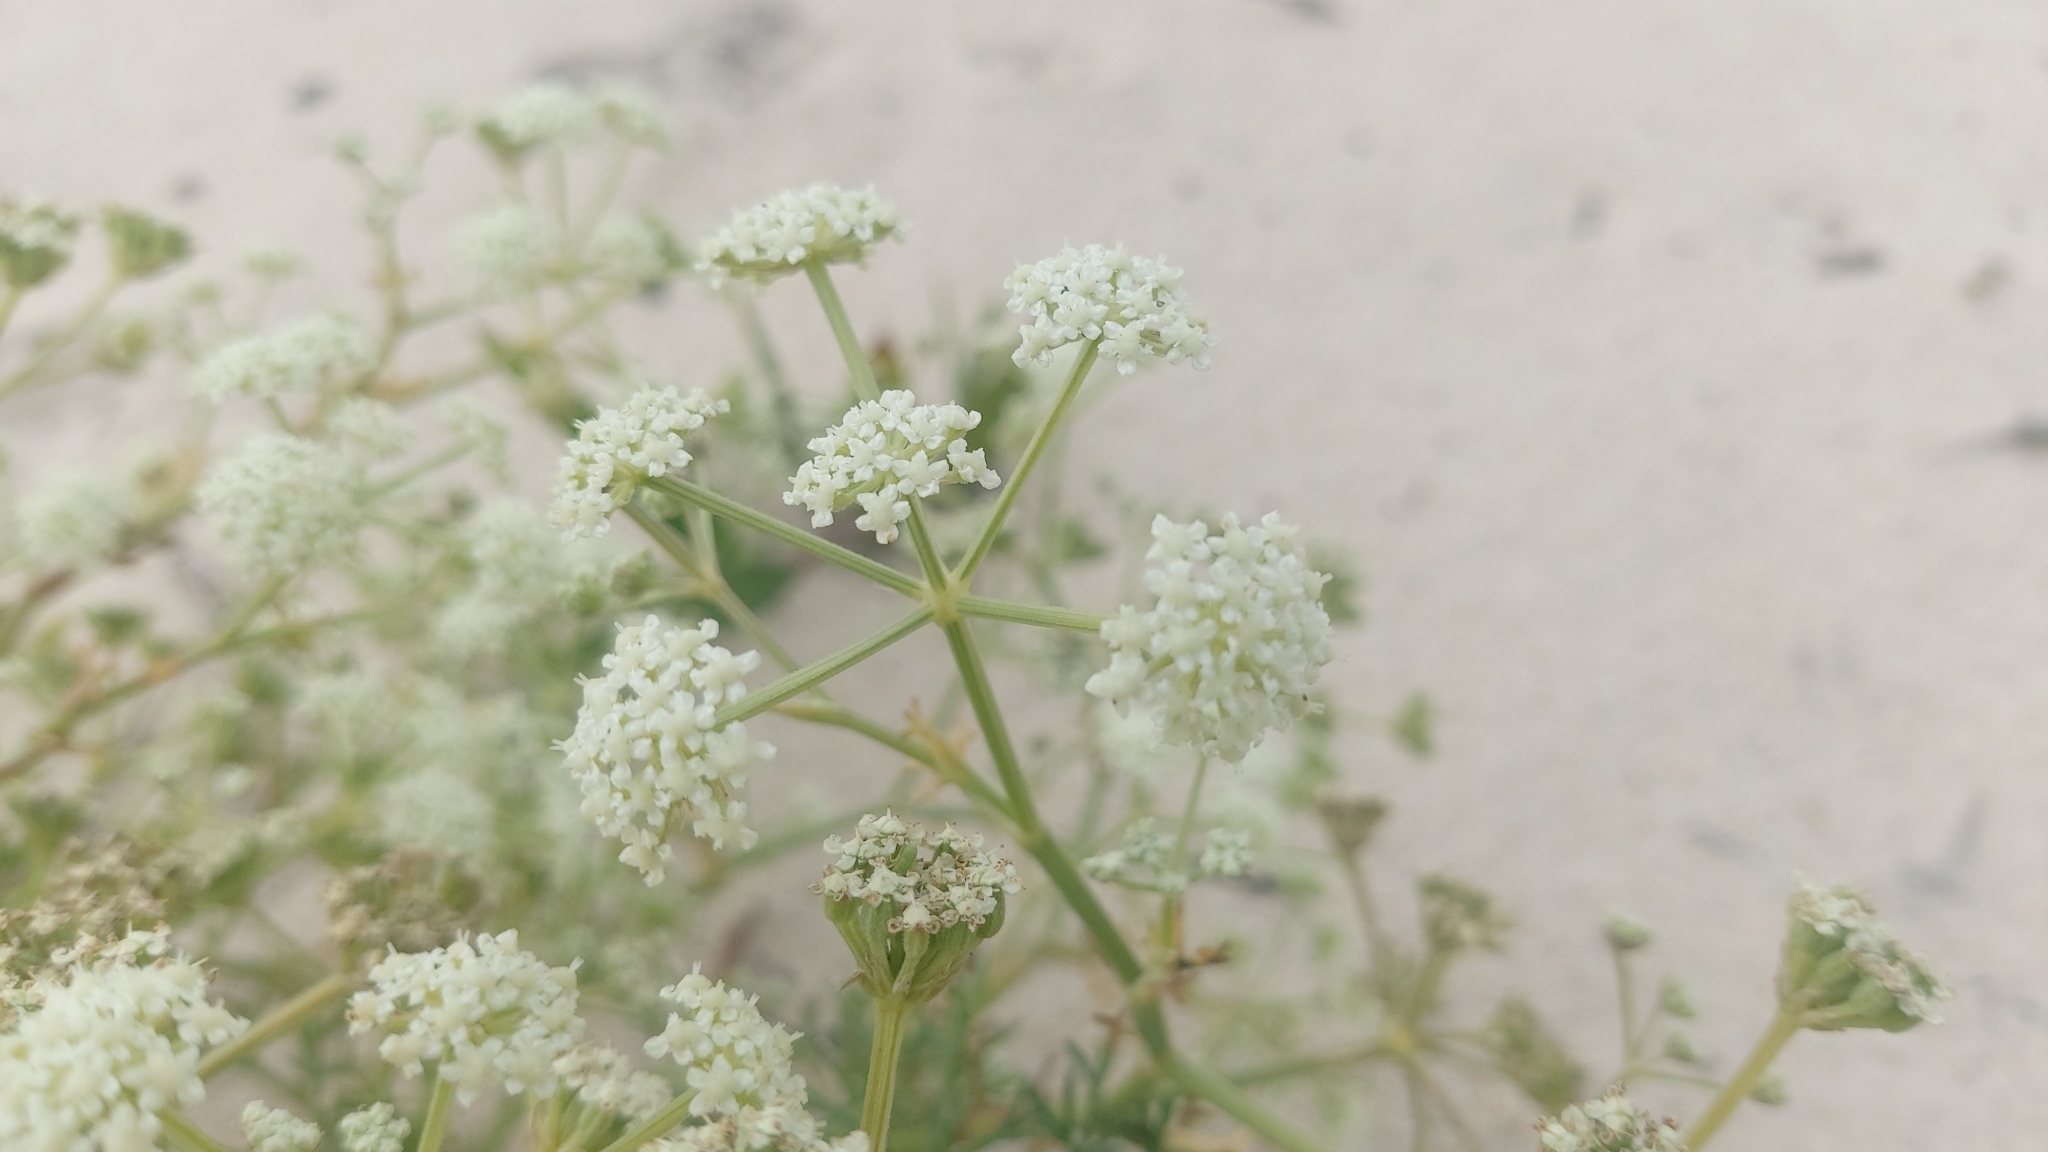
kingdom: Plantae
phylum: Tracheophyta
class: Magnoliopsida
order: Apiales
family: Apiaceae
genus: Seseli
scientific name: Seseli tortuosum
